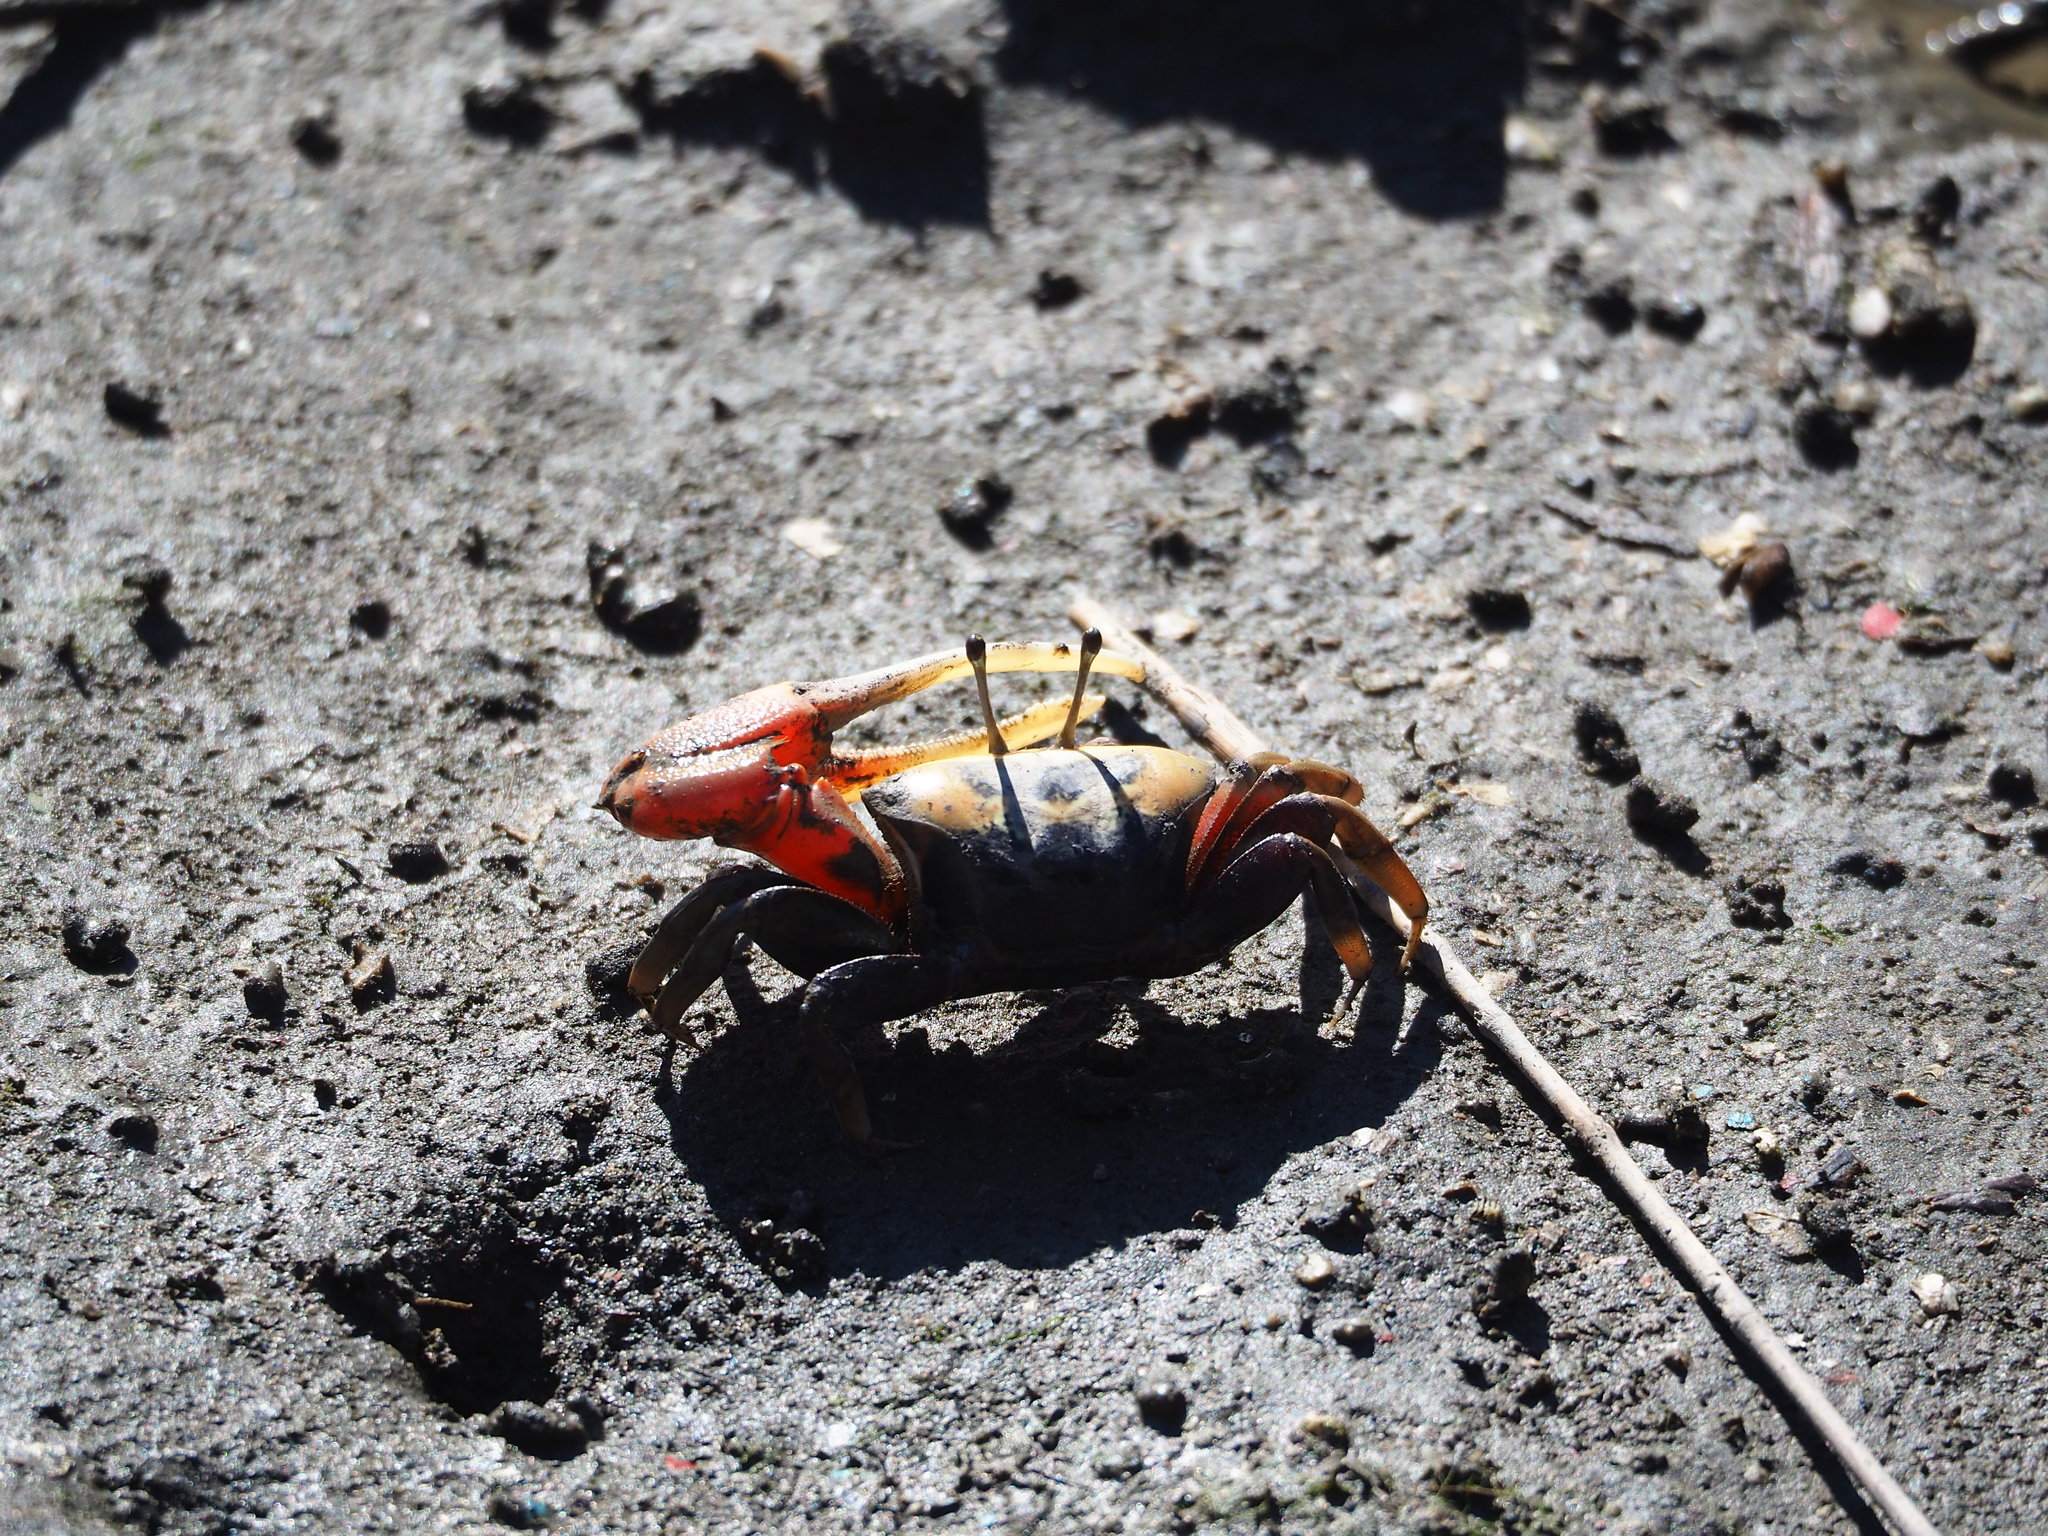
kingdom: Animalia
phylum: Arthropoda
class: Malacostraca
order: Decapoda
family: Ocypodidae
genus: Tubuca
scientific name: Tubuca arcuata
